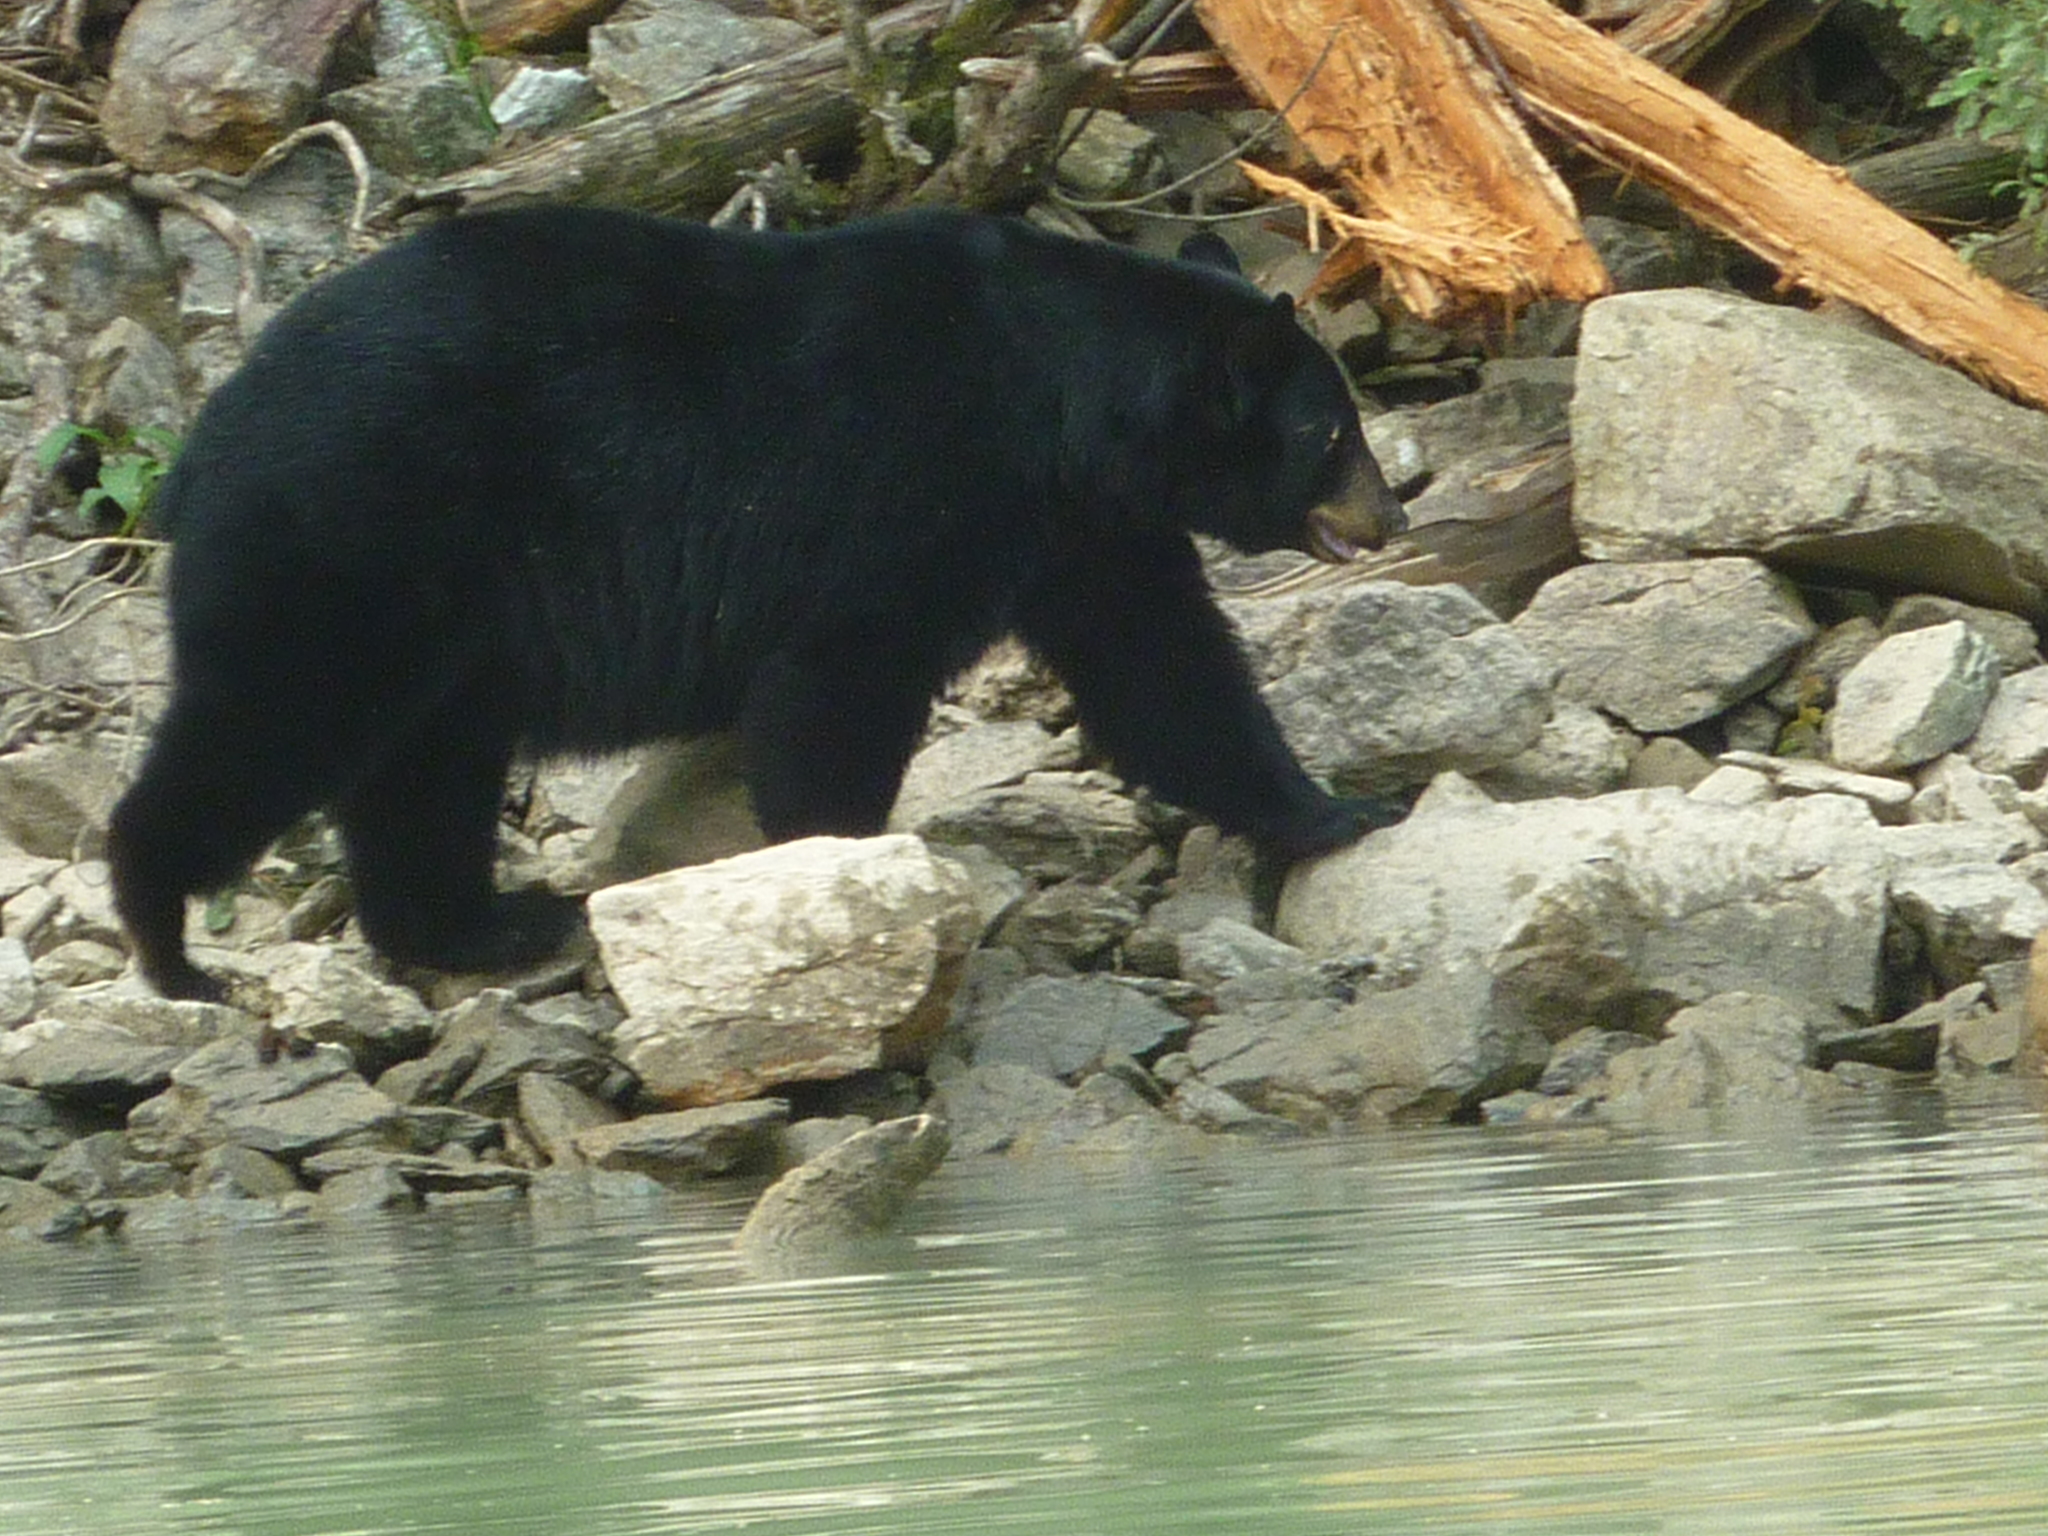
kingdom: Animalia
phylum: Chordata
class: Mammalia
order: Carnivora
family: Ursidae
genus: Ursus
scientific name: Ursus americanus
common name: American black bear
